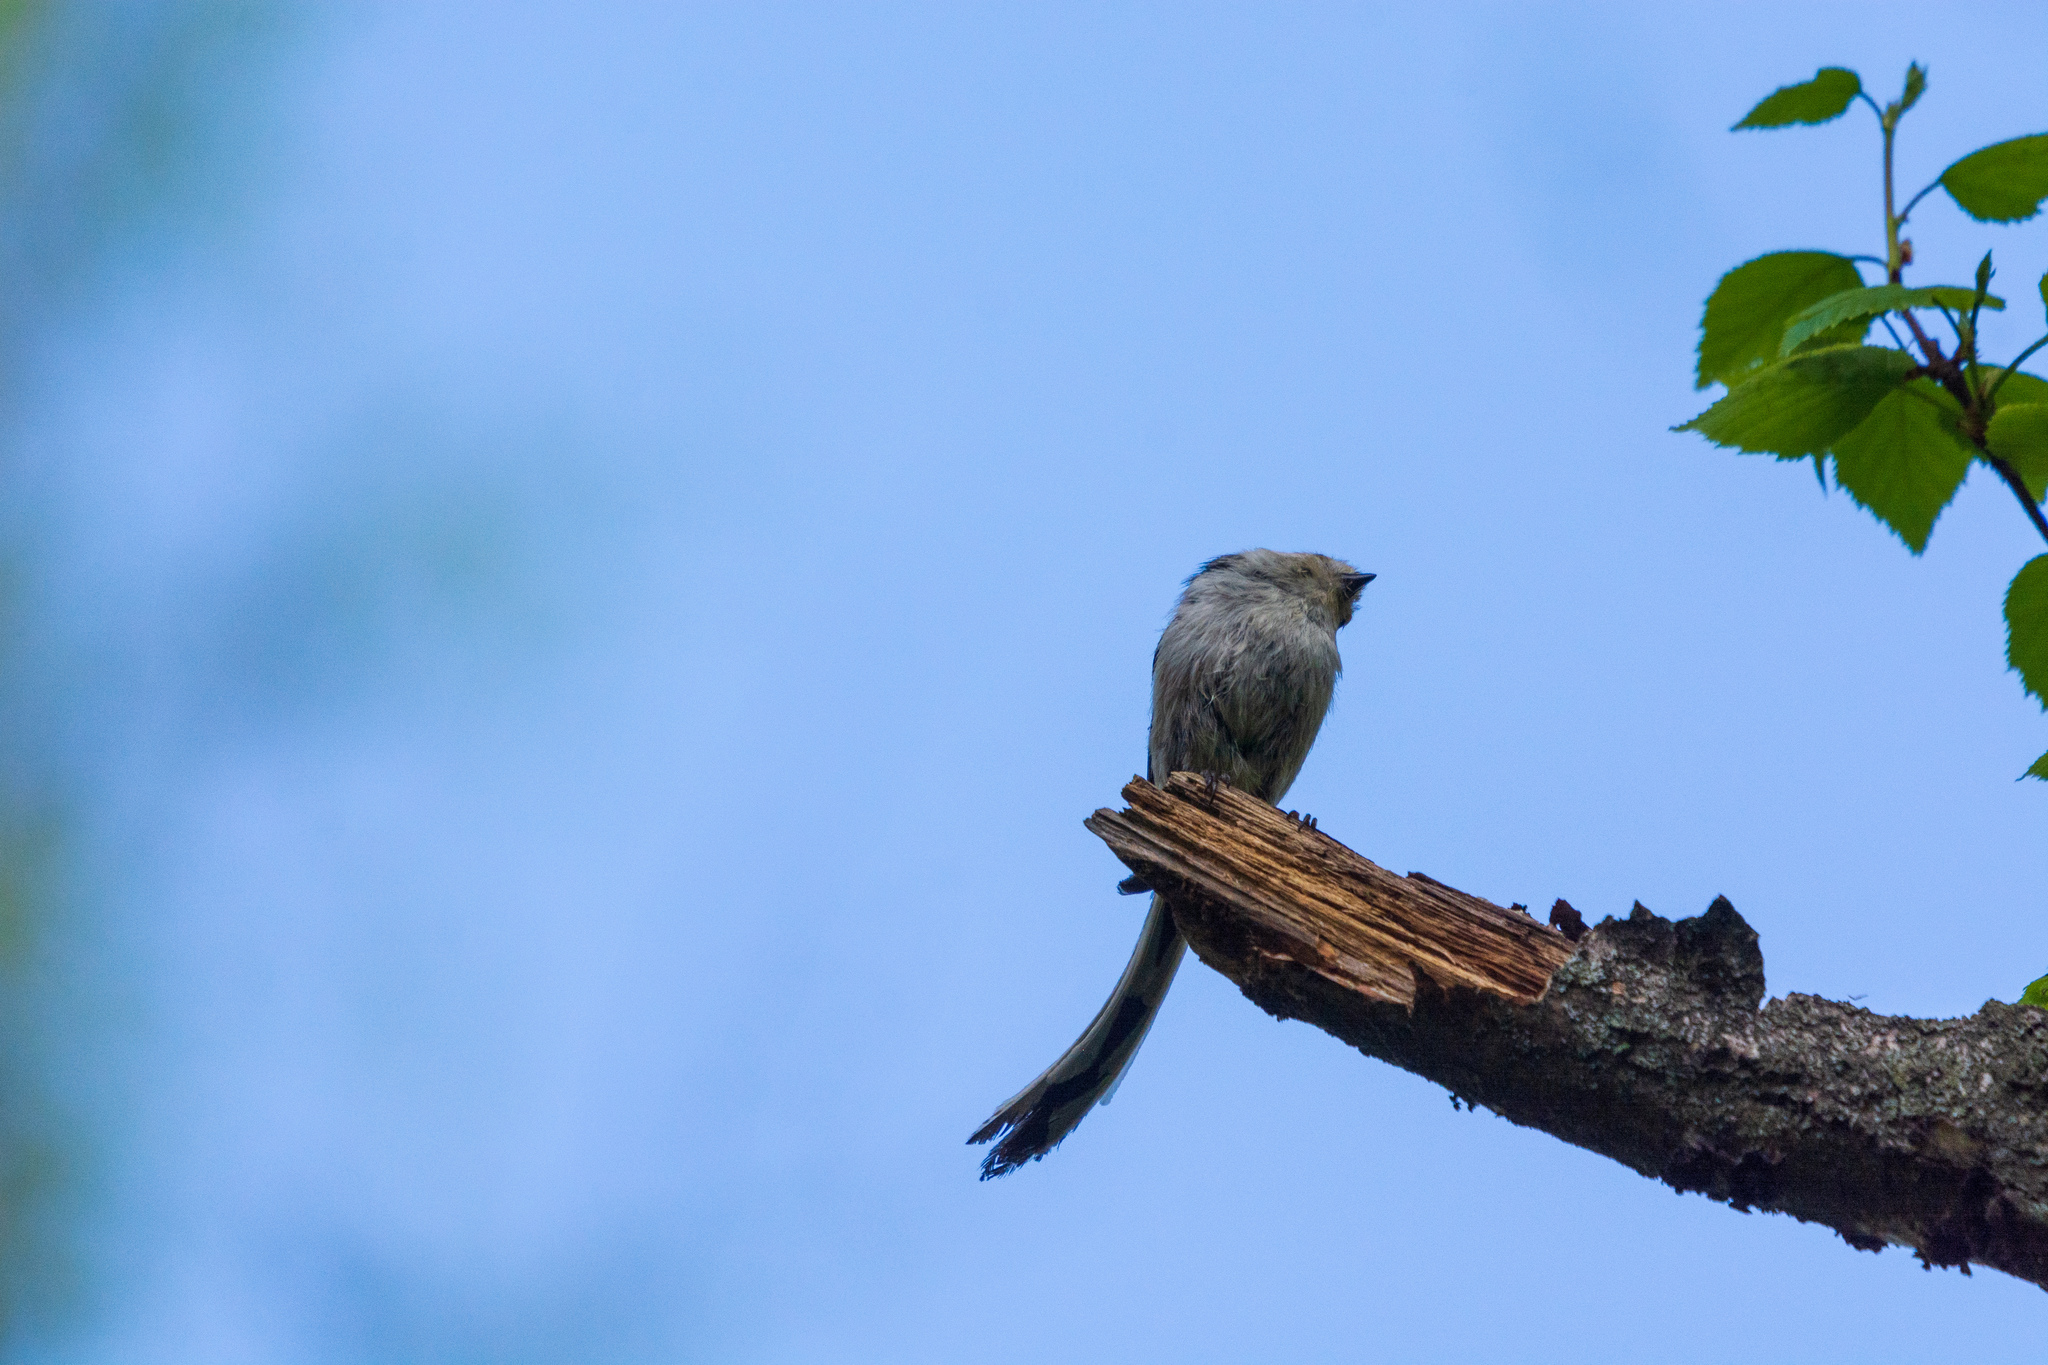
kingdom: Animalia
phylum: Chordata
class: Aves
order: Passeriformes
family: Aegithalidae
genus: Aegithalos
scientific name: Aegithalos caudatus
